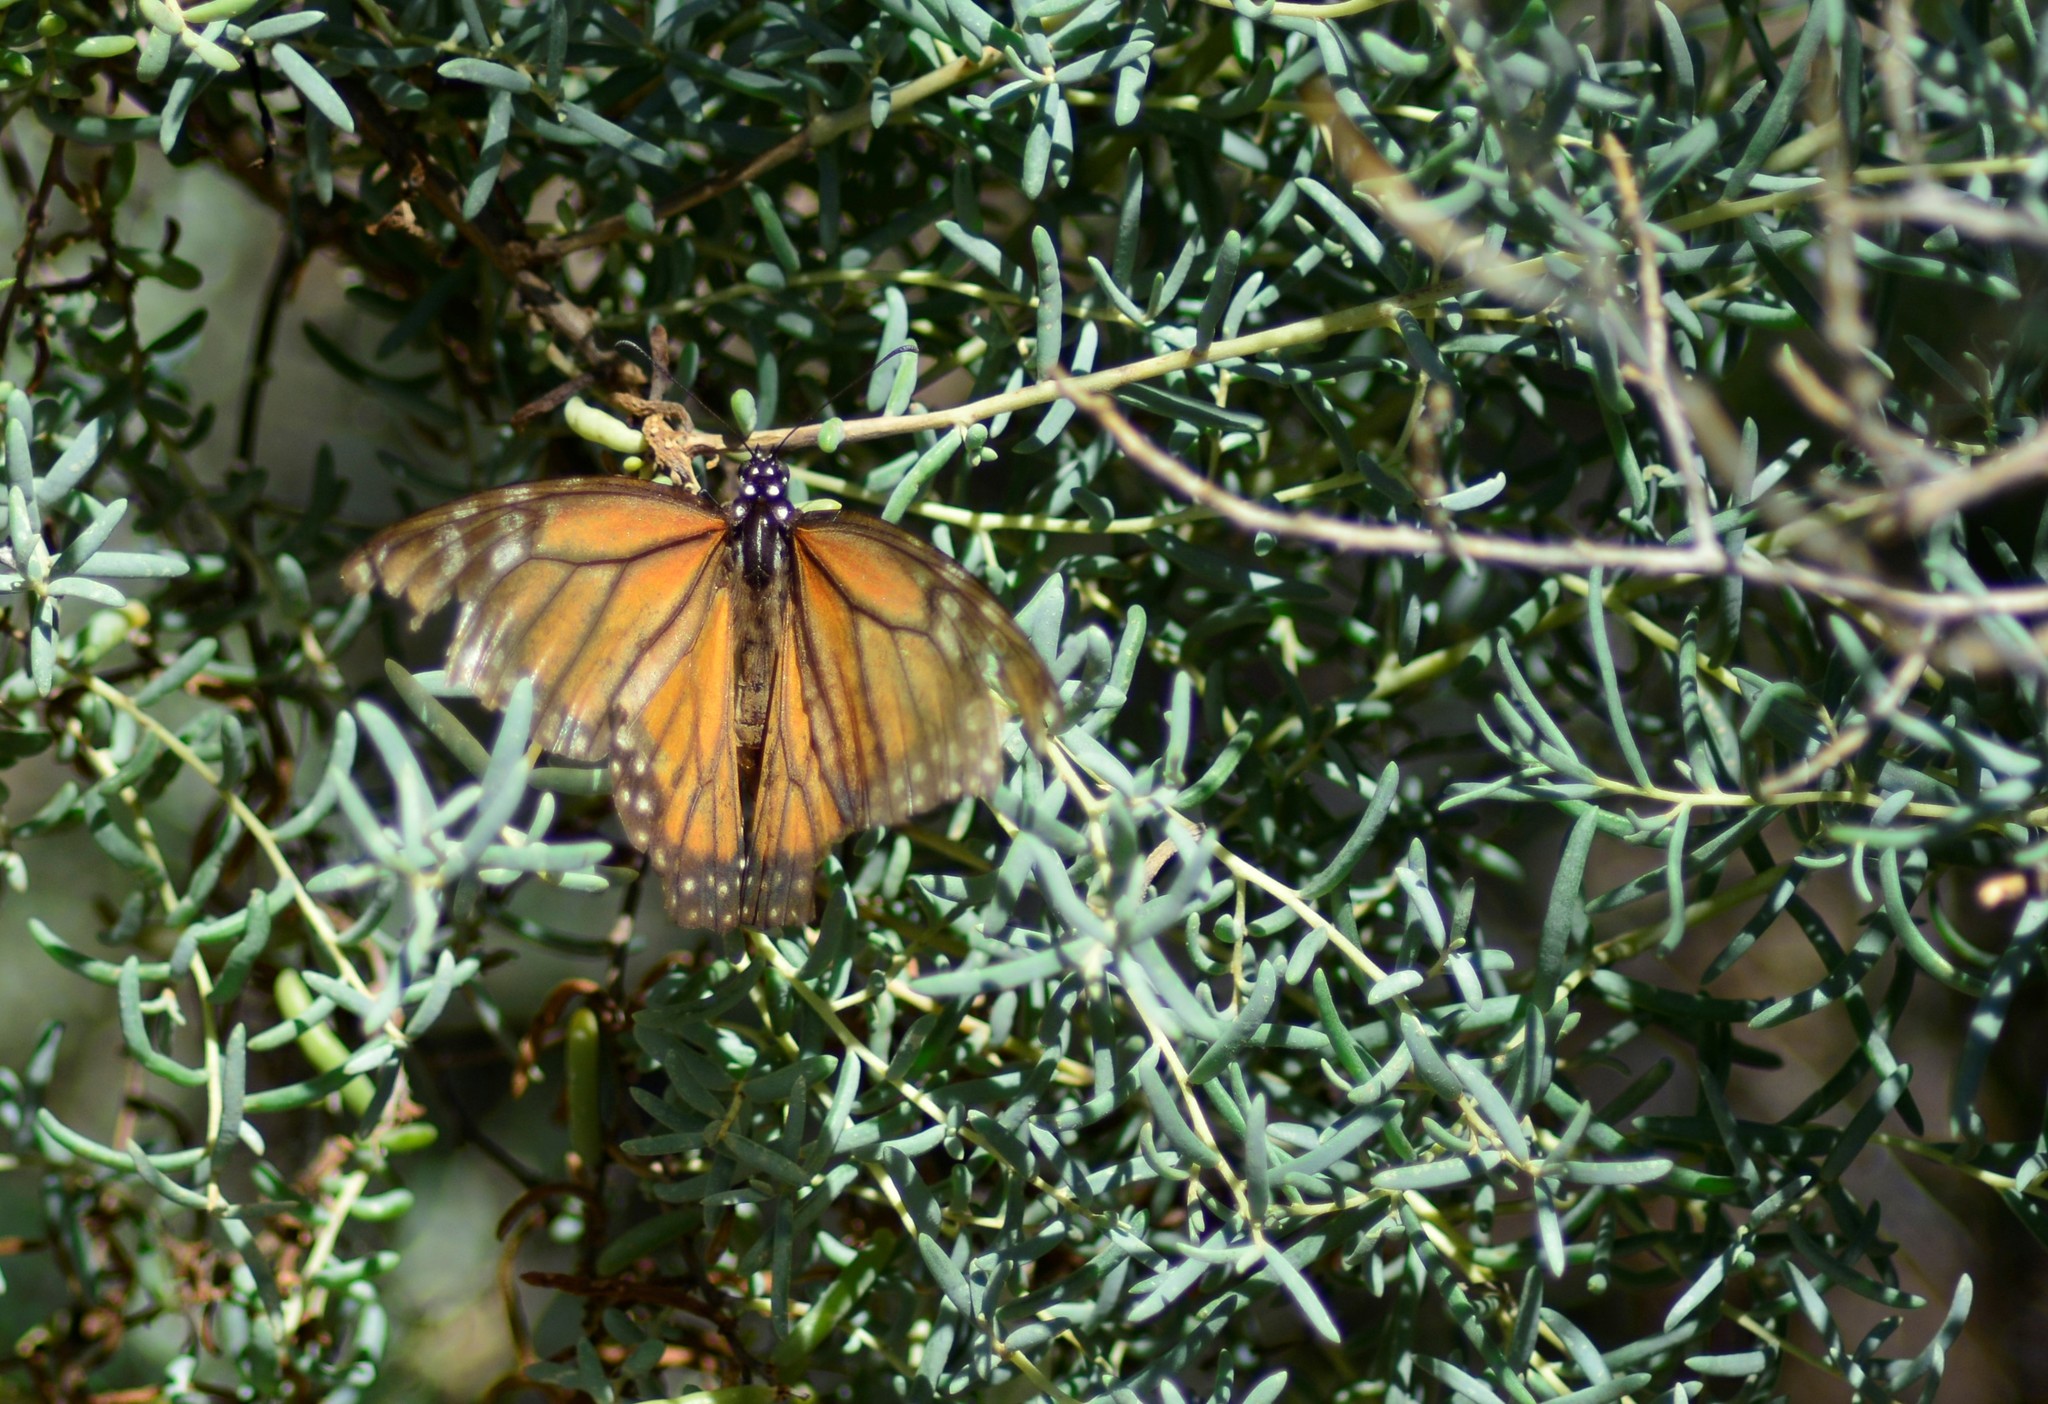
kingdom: Animalia
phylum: Arthropoda
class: Insecta
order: Lepidoptera
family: Nymphalidae
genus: Danaus
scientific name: Danaus erippus
